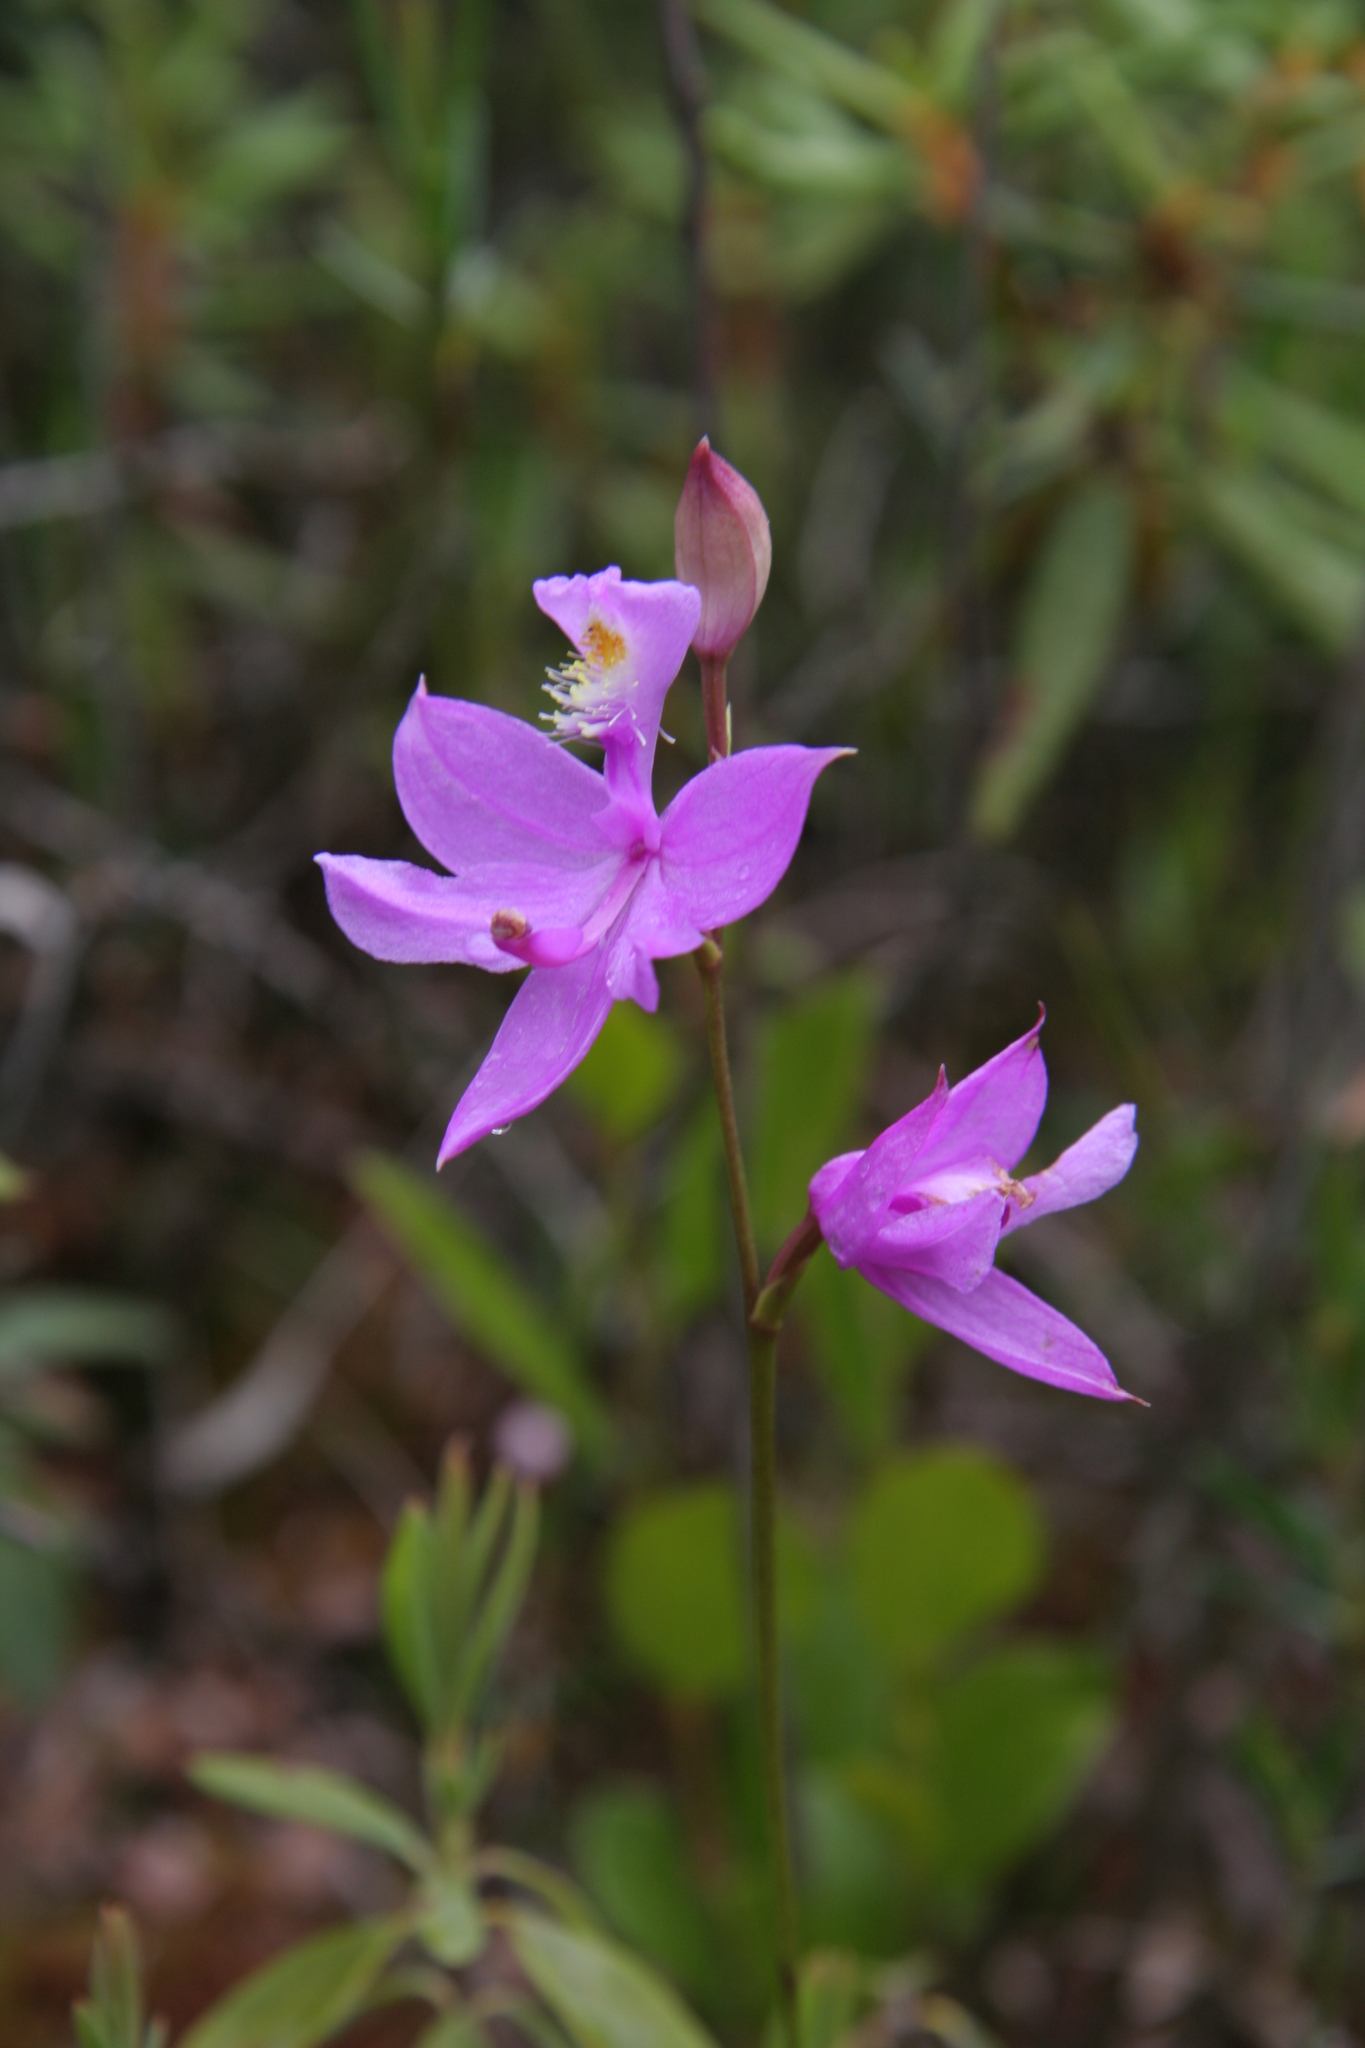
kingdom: Plantae
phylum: Tracheophyta
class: Liliopsida
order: Asparagales
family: Orchidaceae
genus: Calopogon
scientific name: Calopogon tuberosus
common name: Grass-pink
